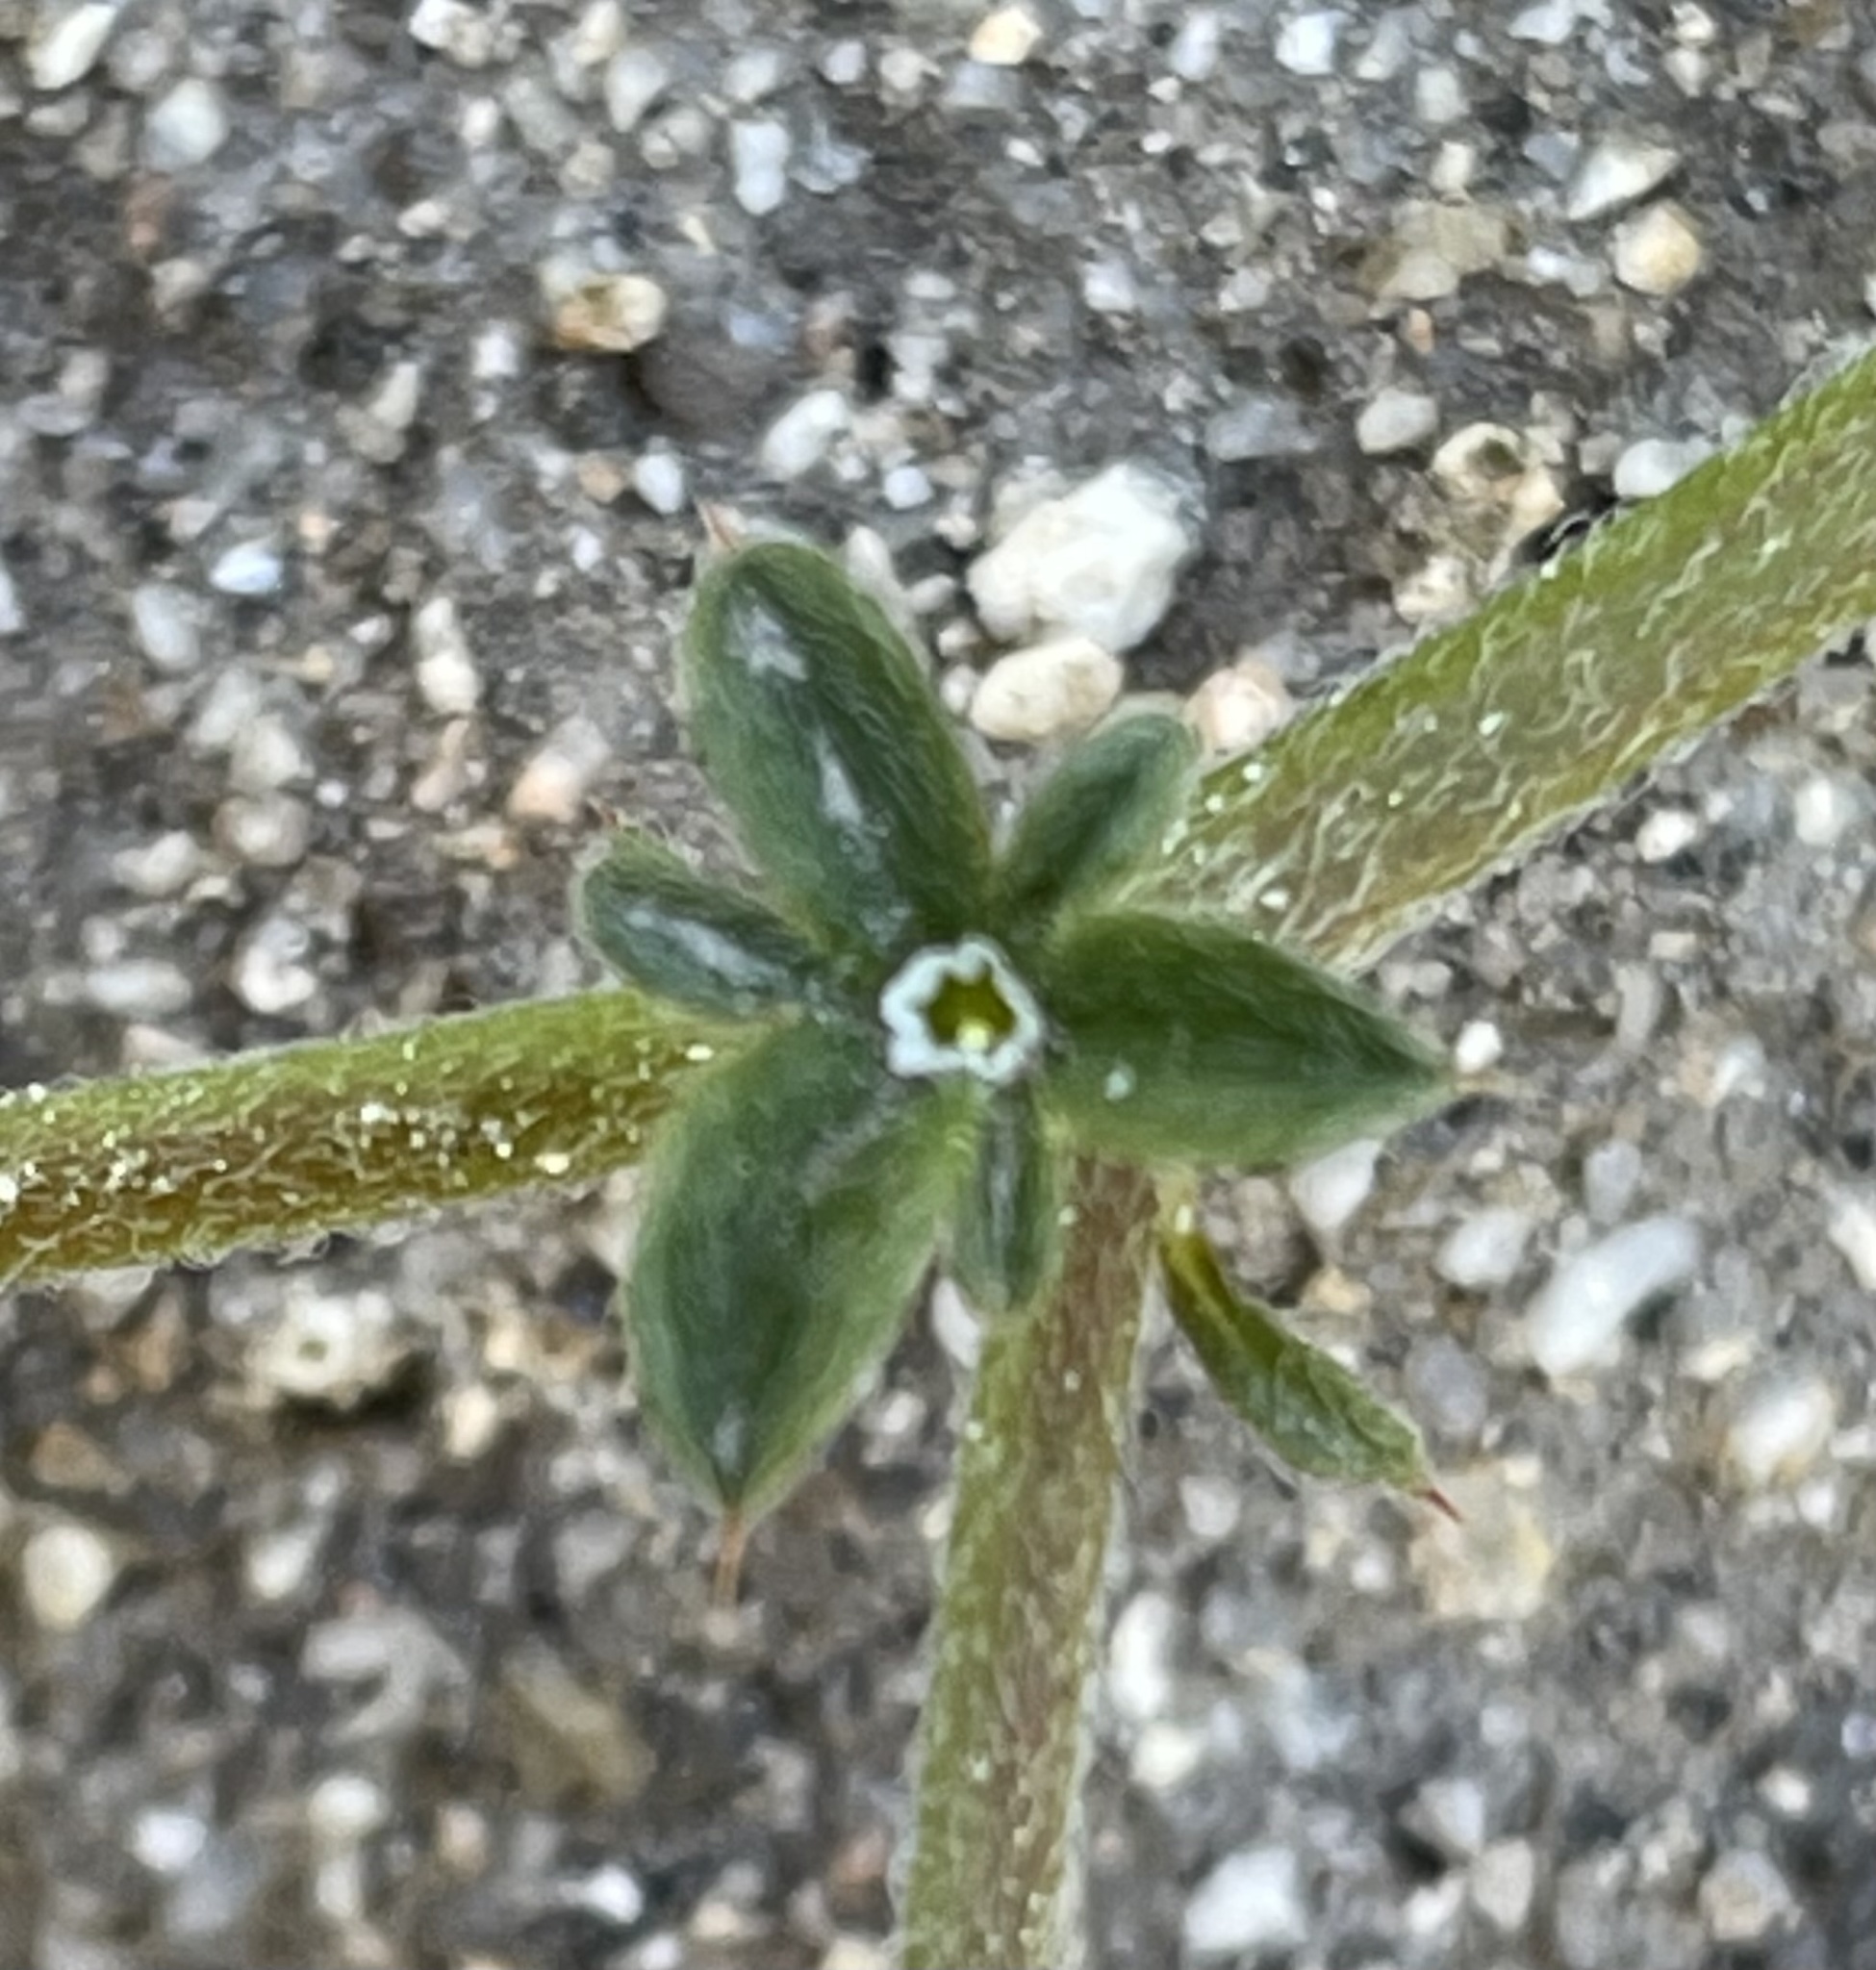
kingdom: Plantae
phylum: Tracheophyta
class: Magnoliopsida
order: Caryophyllales
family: Polygonaceae
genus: Chorizanthe
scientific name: Chorizanthe diffusa
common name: Diffuse spineflower
